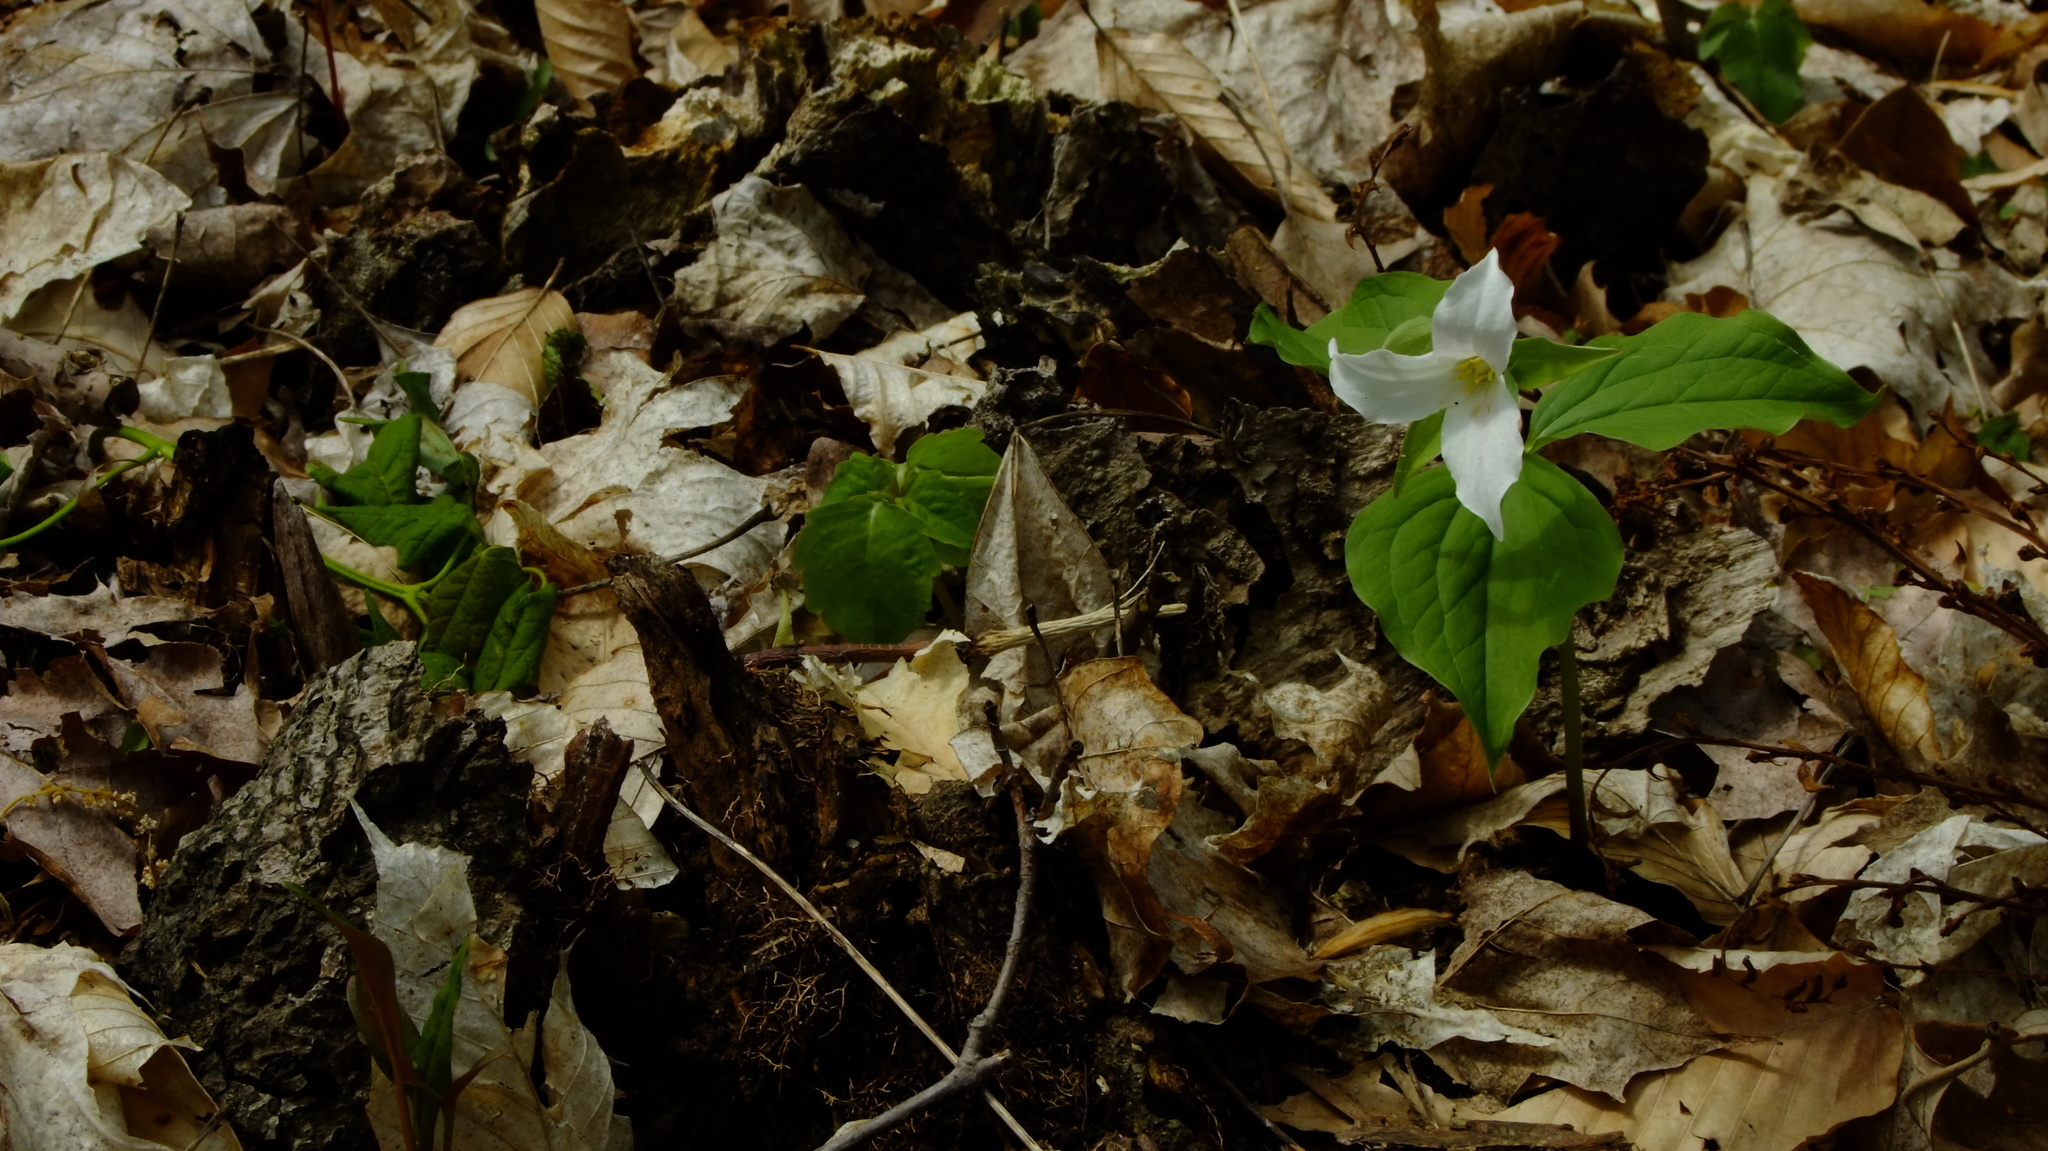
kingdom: Plantae
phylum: Tracheophyta
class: Liliopsida
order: Liliales
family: Melanthiaceae
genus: Trillium
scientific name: Trillium grandiflorum
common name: Great white trillium
